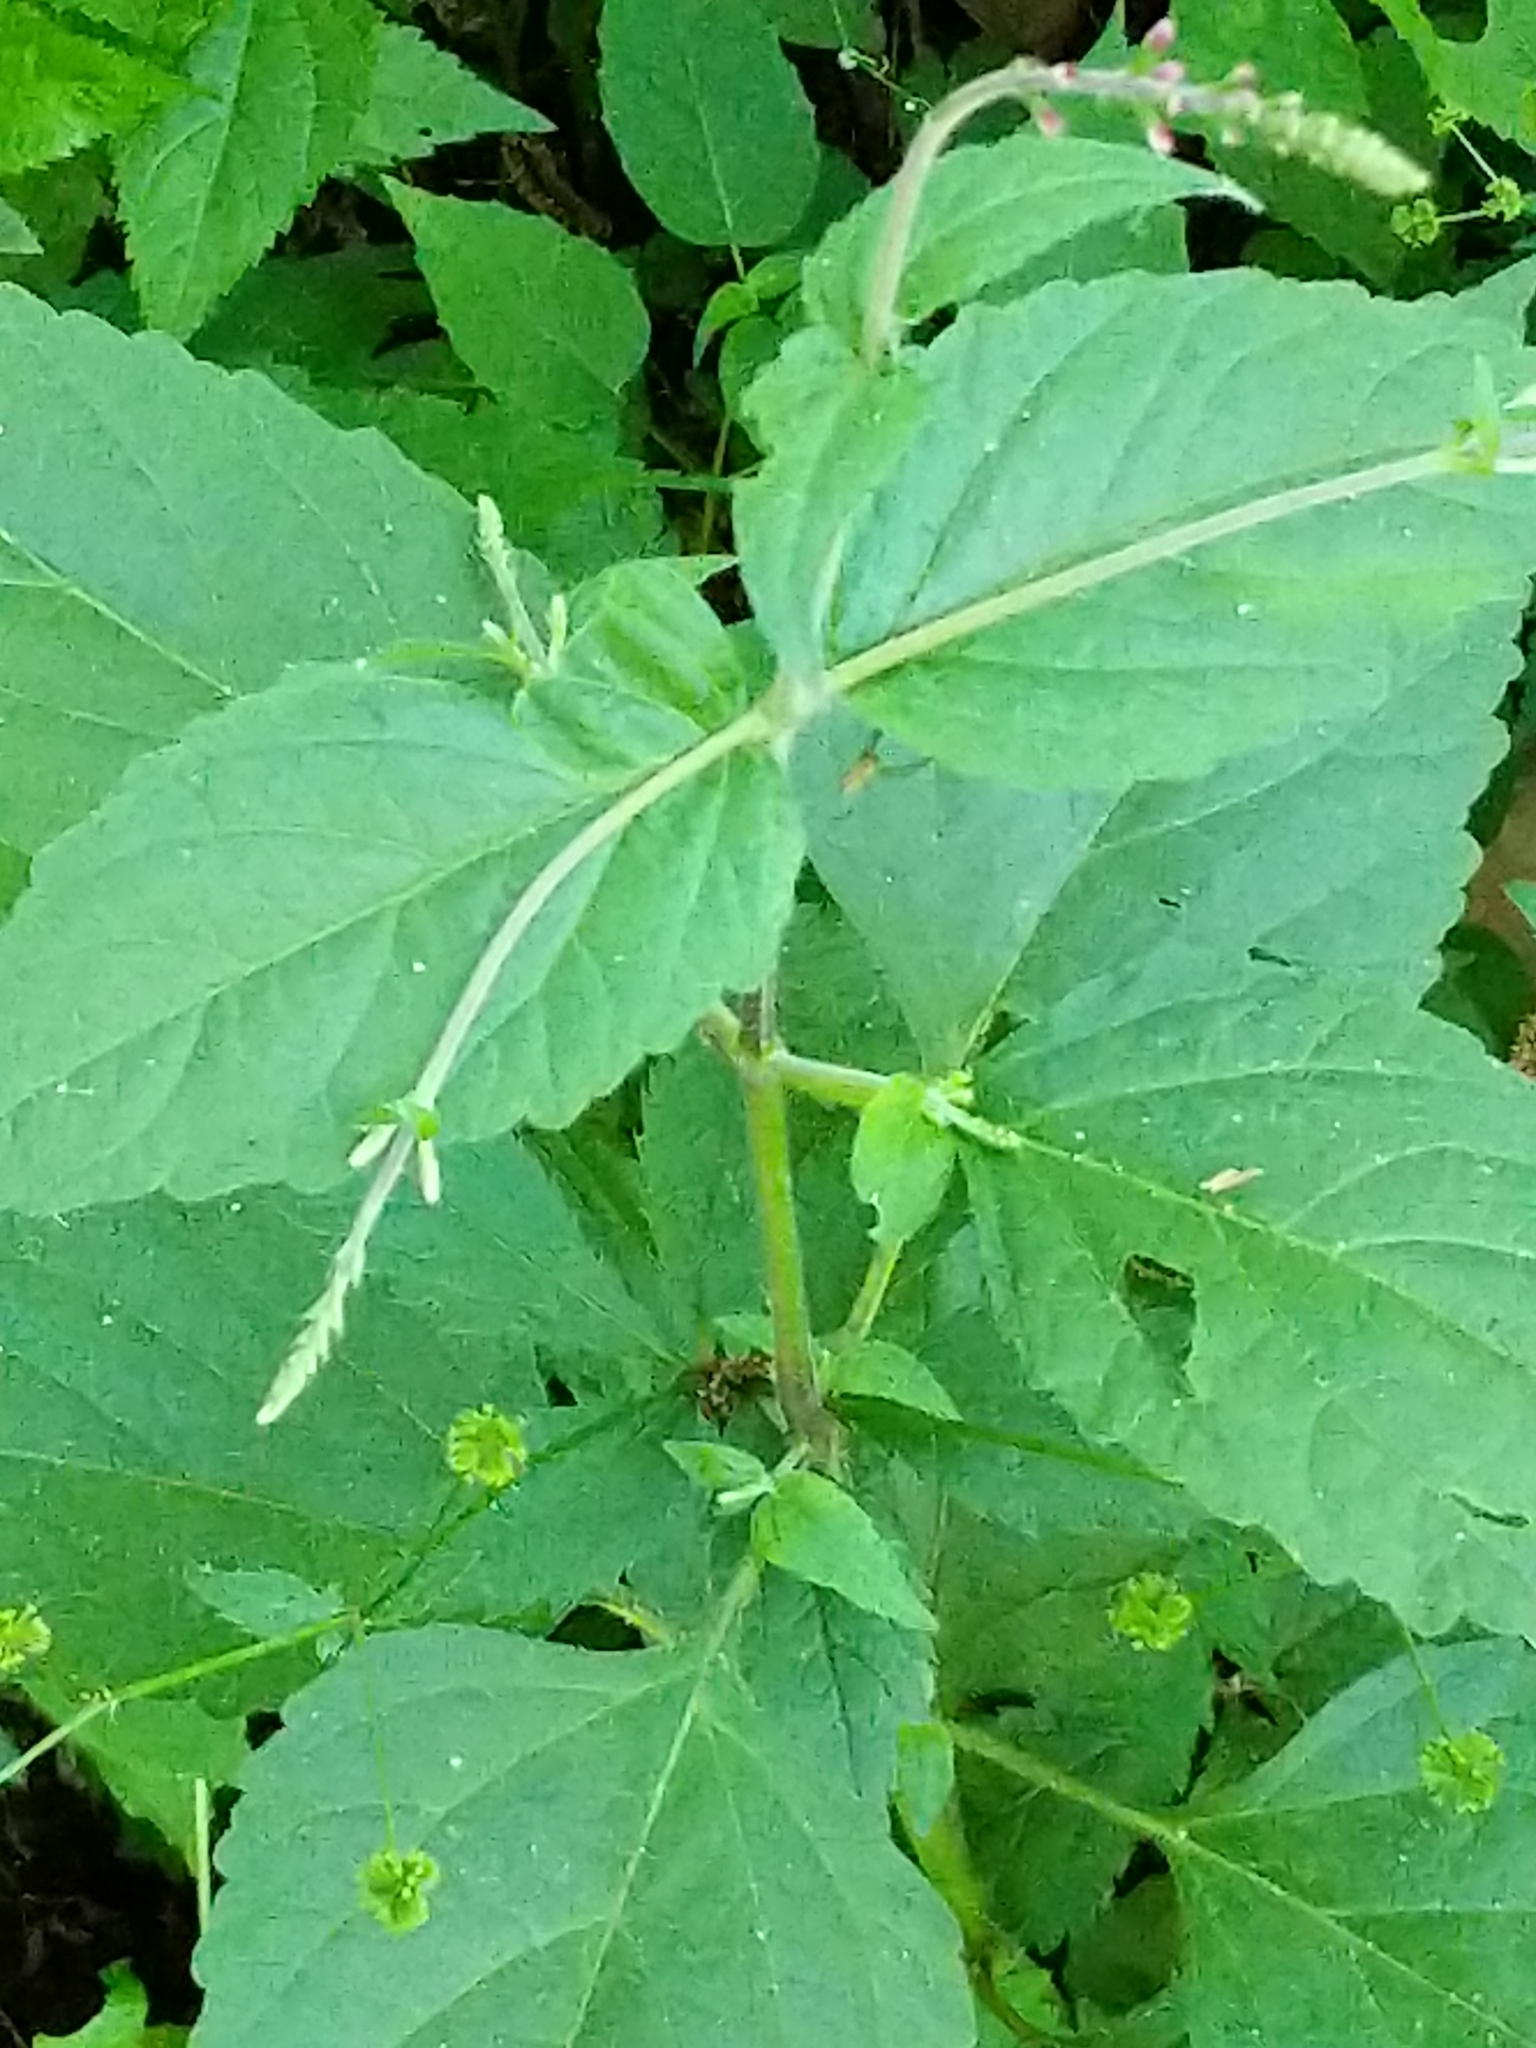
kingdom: Plantae
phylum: Tracheophyta
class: Magnoliopsida
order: Lamiales
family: Phrymaceae
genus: Phryma
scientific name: Phryma leptostachya
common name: American lopseed
